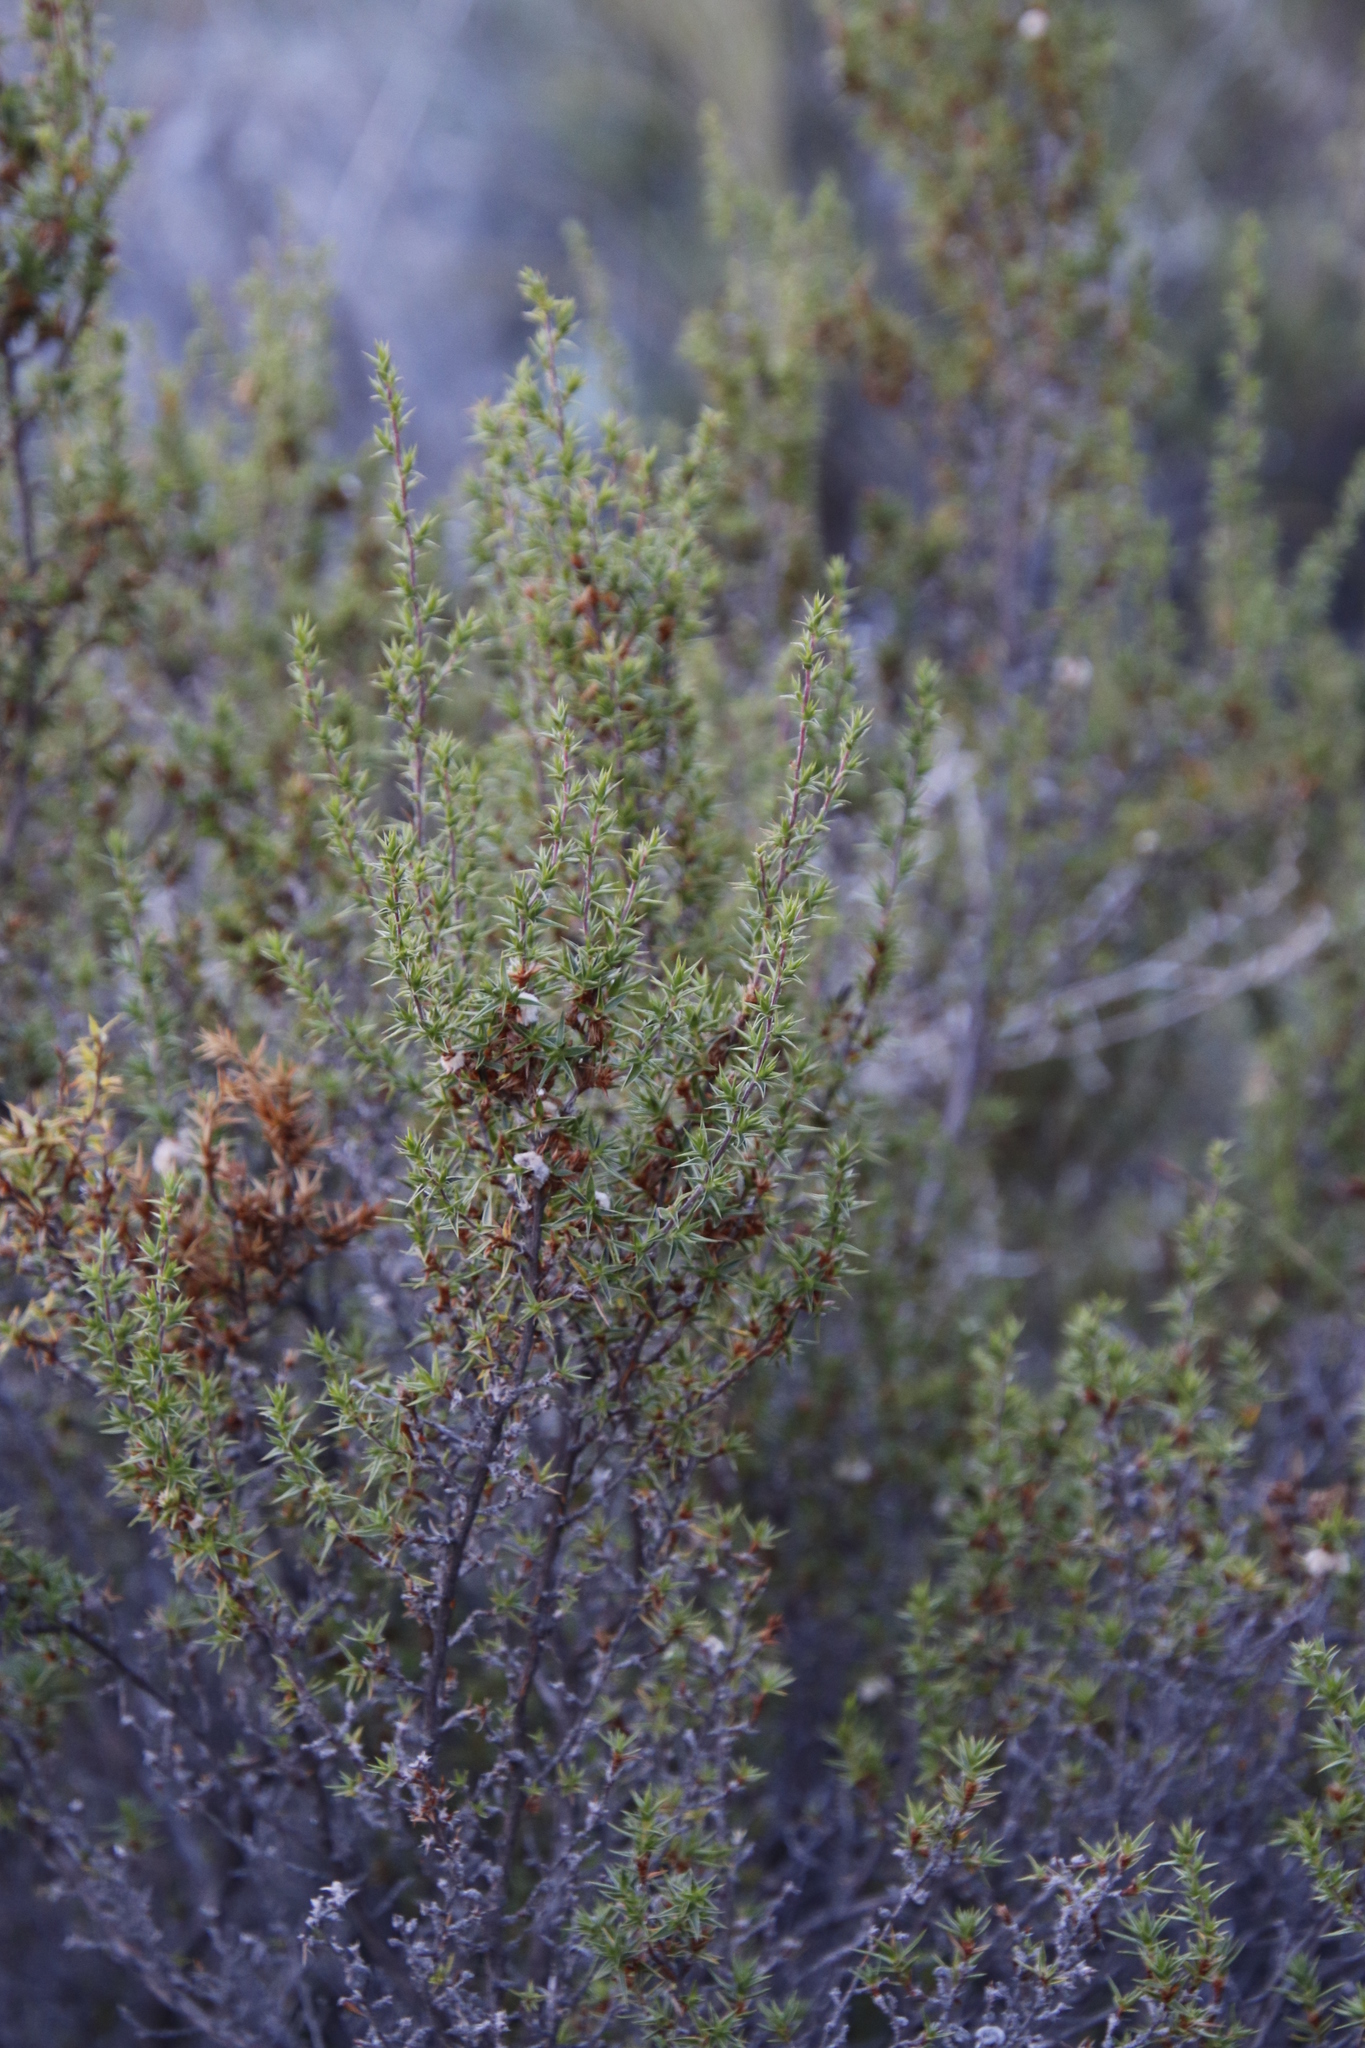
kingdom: Plantae
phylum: Tracheophyta
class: Magnoliopsida
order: Rosales
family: Rosaceae
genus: Cliffortia
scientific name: Cliffortia ruscifolia
